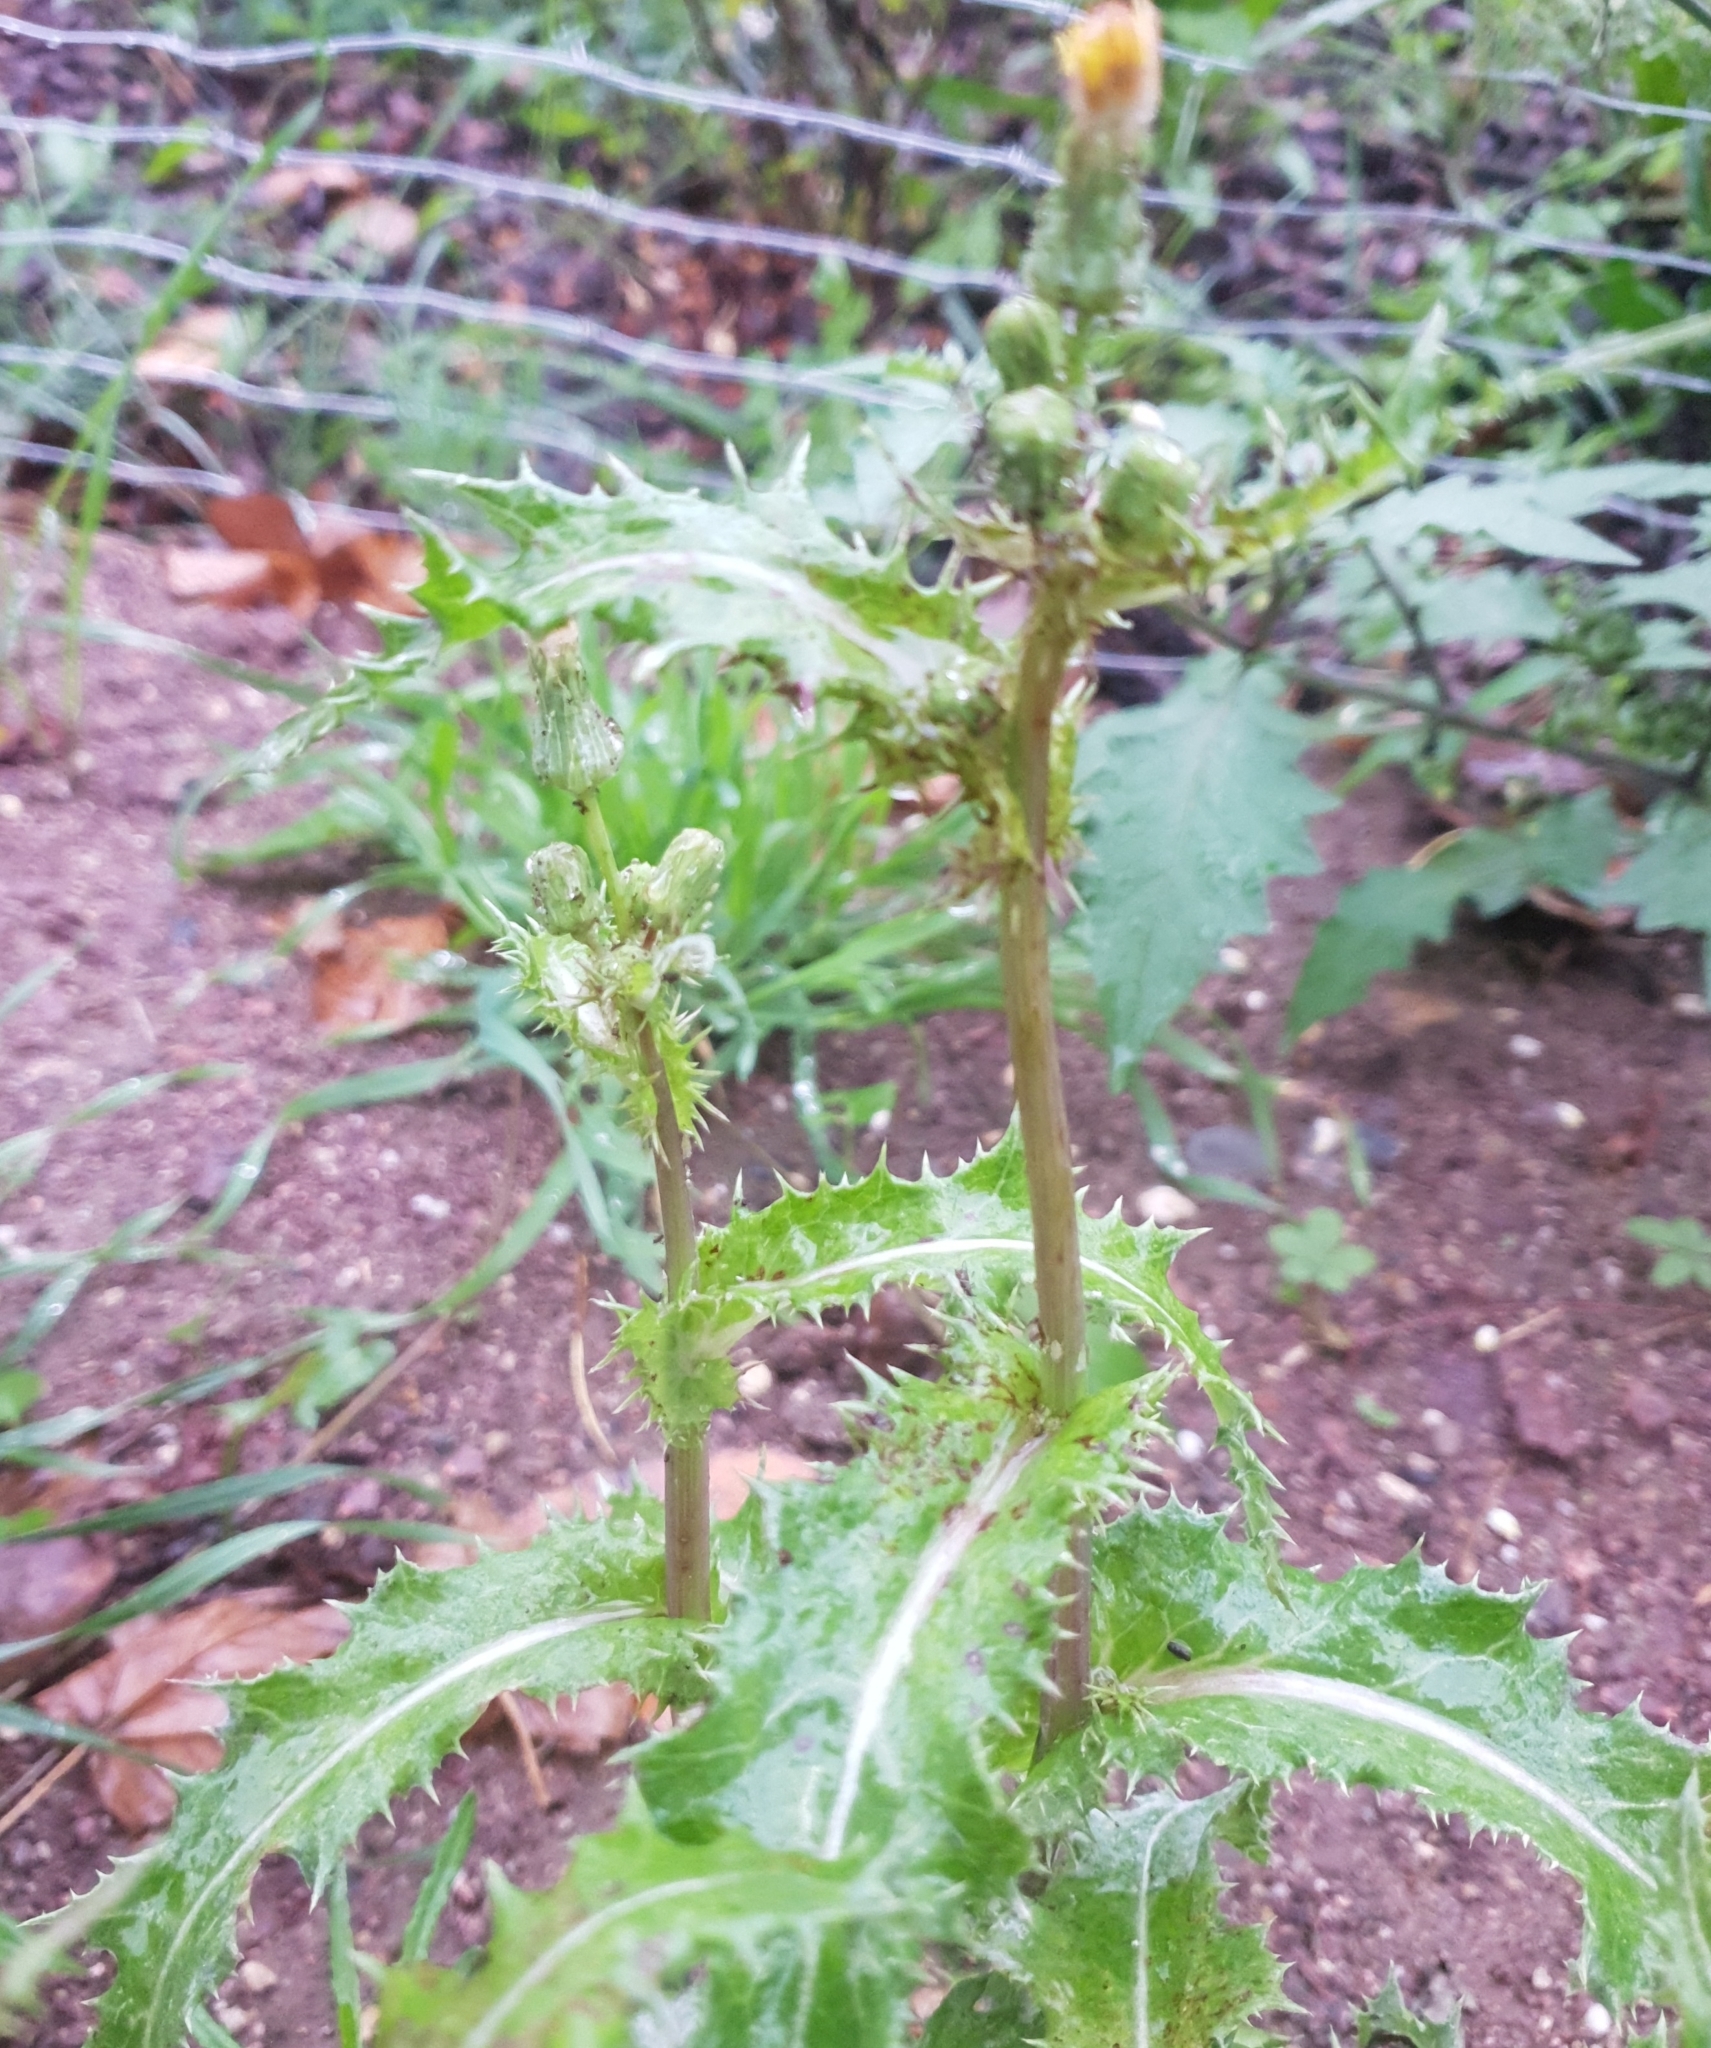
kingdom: Plantae
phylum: Tracheophyta
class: Magnoliopsida
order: Asterales
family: Asteraceae
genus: Sonchus
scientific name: Sonchus asper
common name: Prickly sow-thistle
